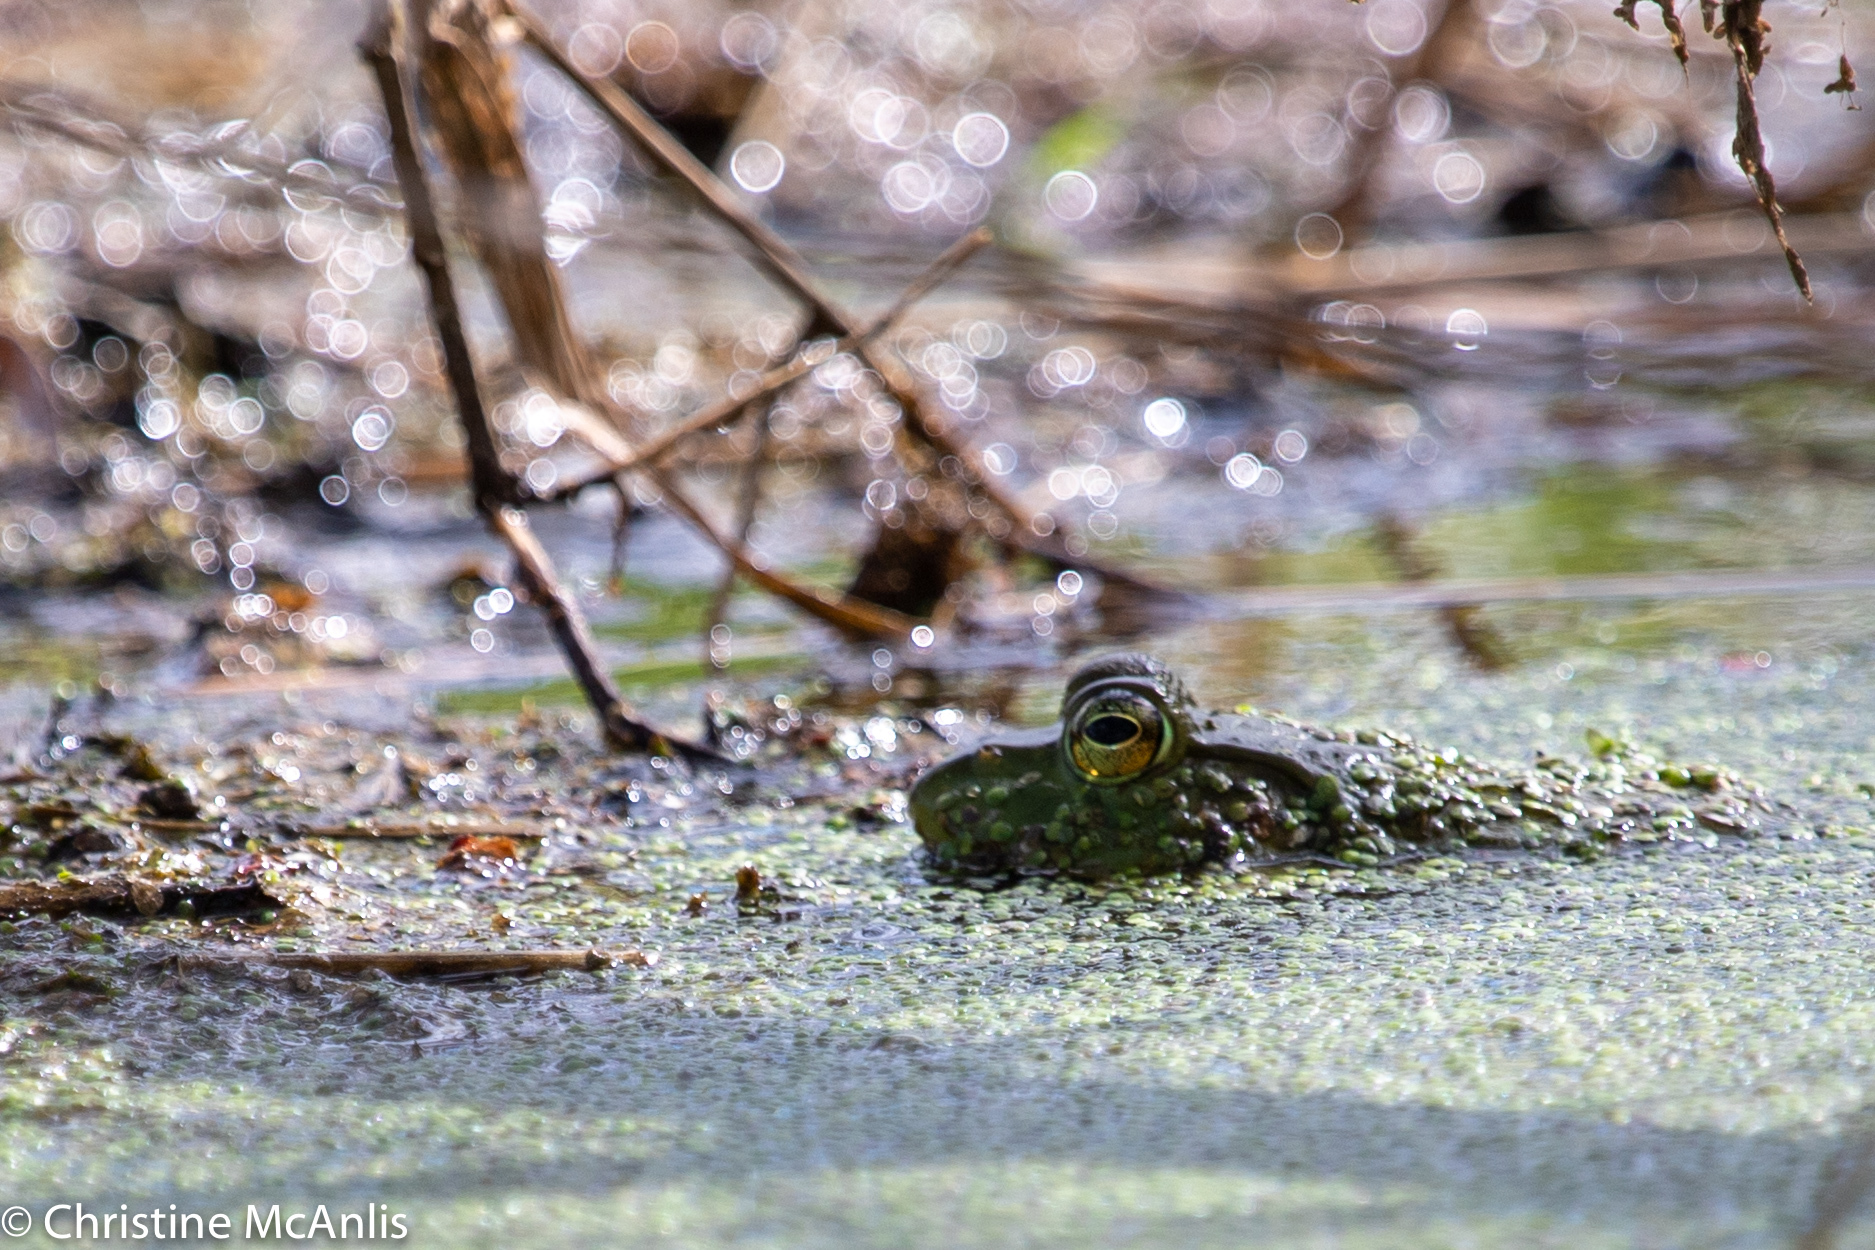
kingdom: Animalia
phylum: Chordata
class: Amphibia
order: Anura
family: Ranidae
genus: Lithobates
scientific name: Lithobates catesbeianus
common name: American bullfrog
